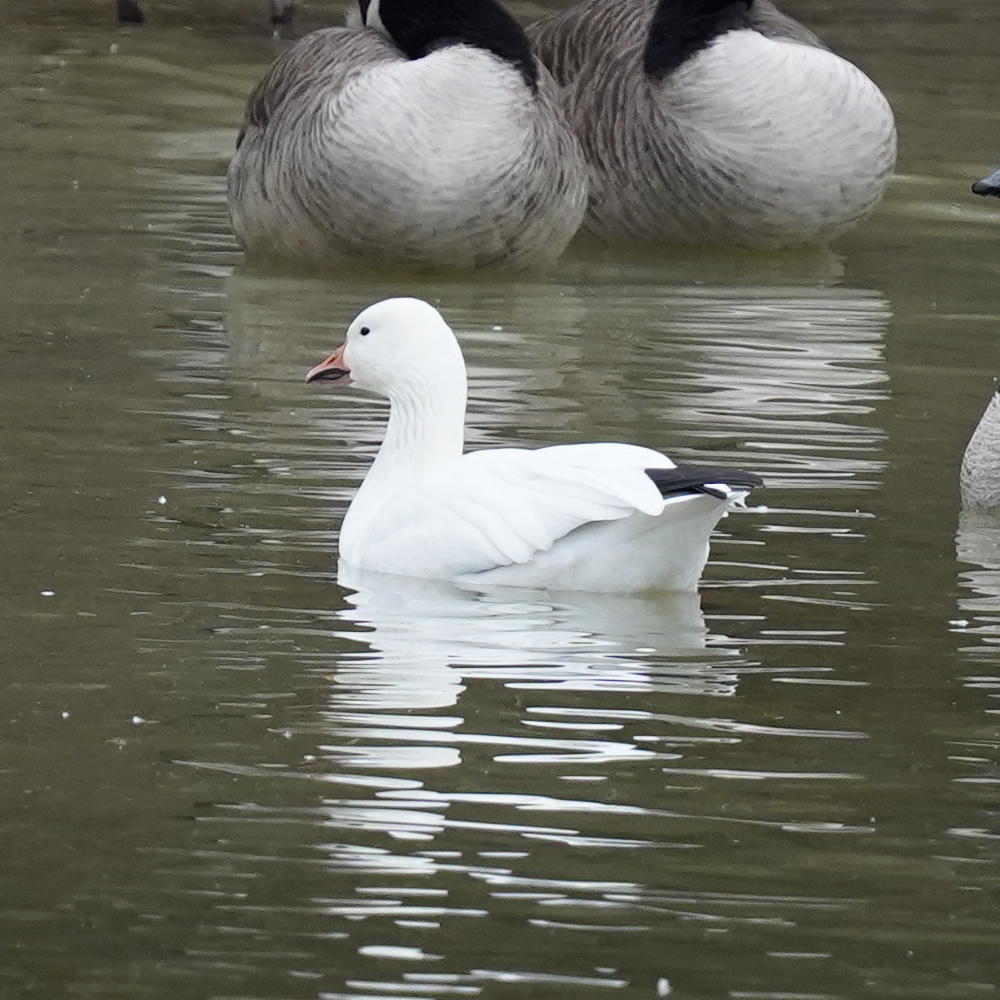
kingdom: Animalia
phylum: Chordata
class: Aves
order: Anseriformes
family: Anatidae
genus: Anser
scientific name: Anser caerulescens
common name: Snow goose
